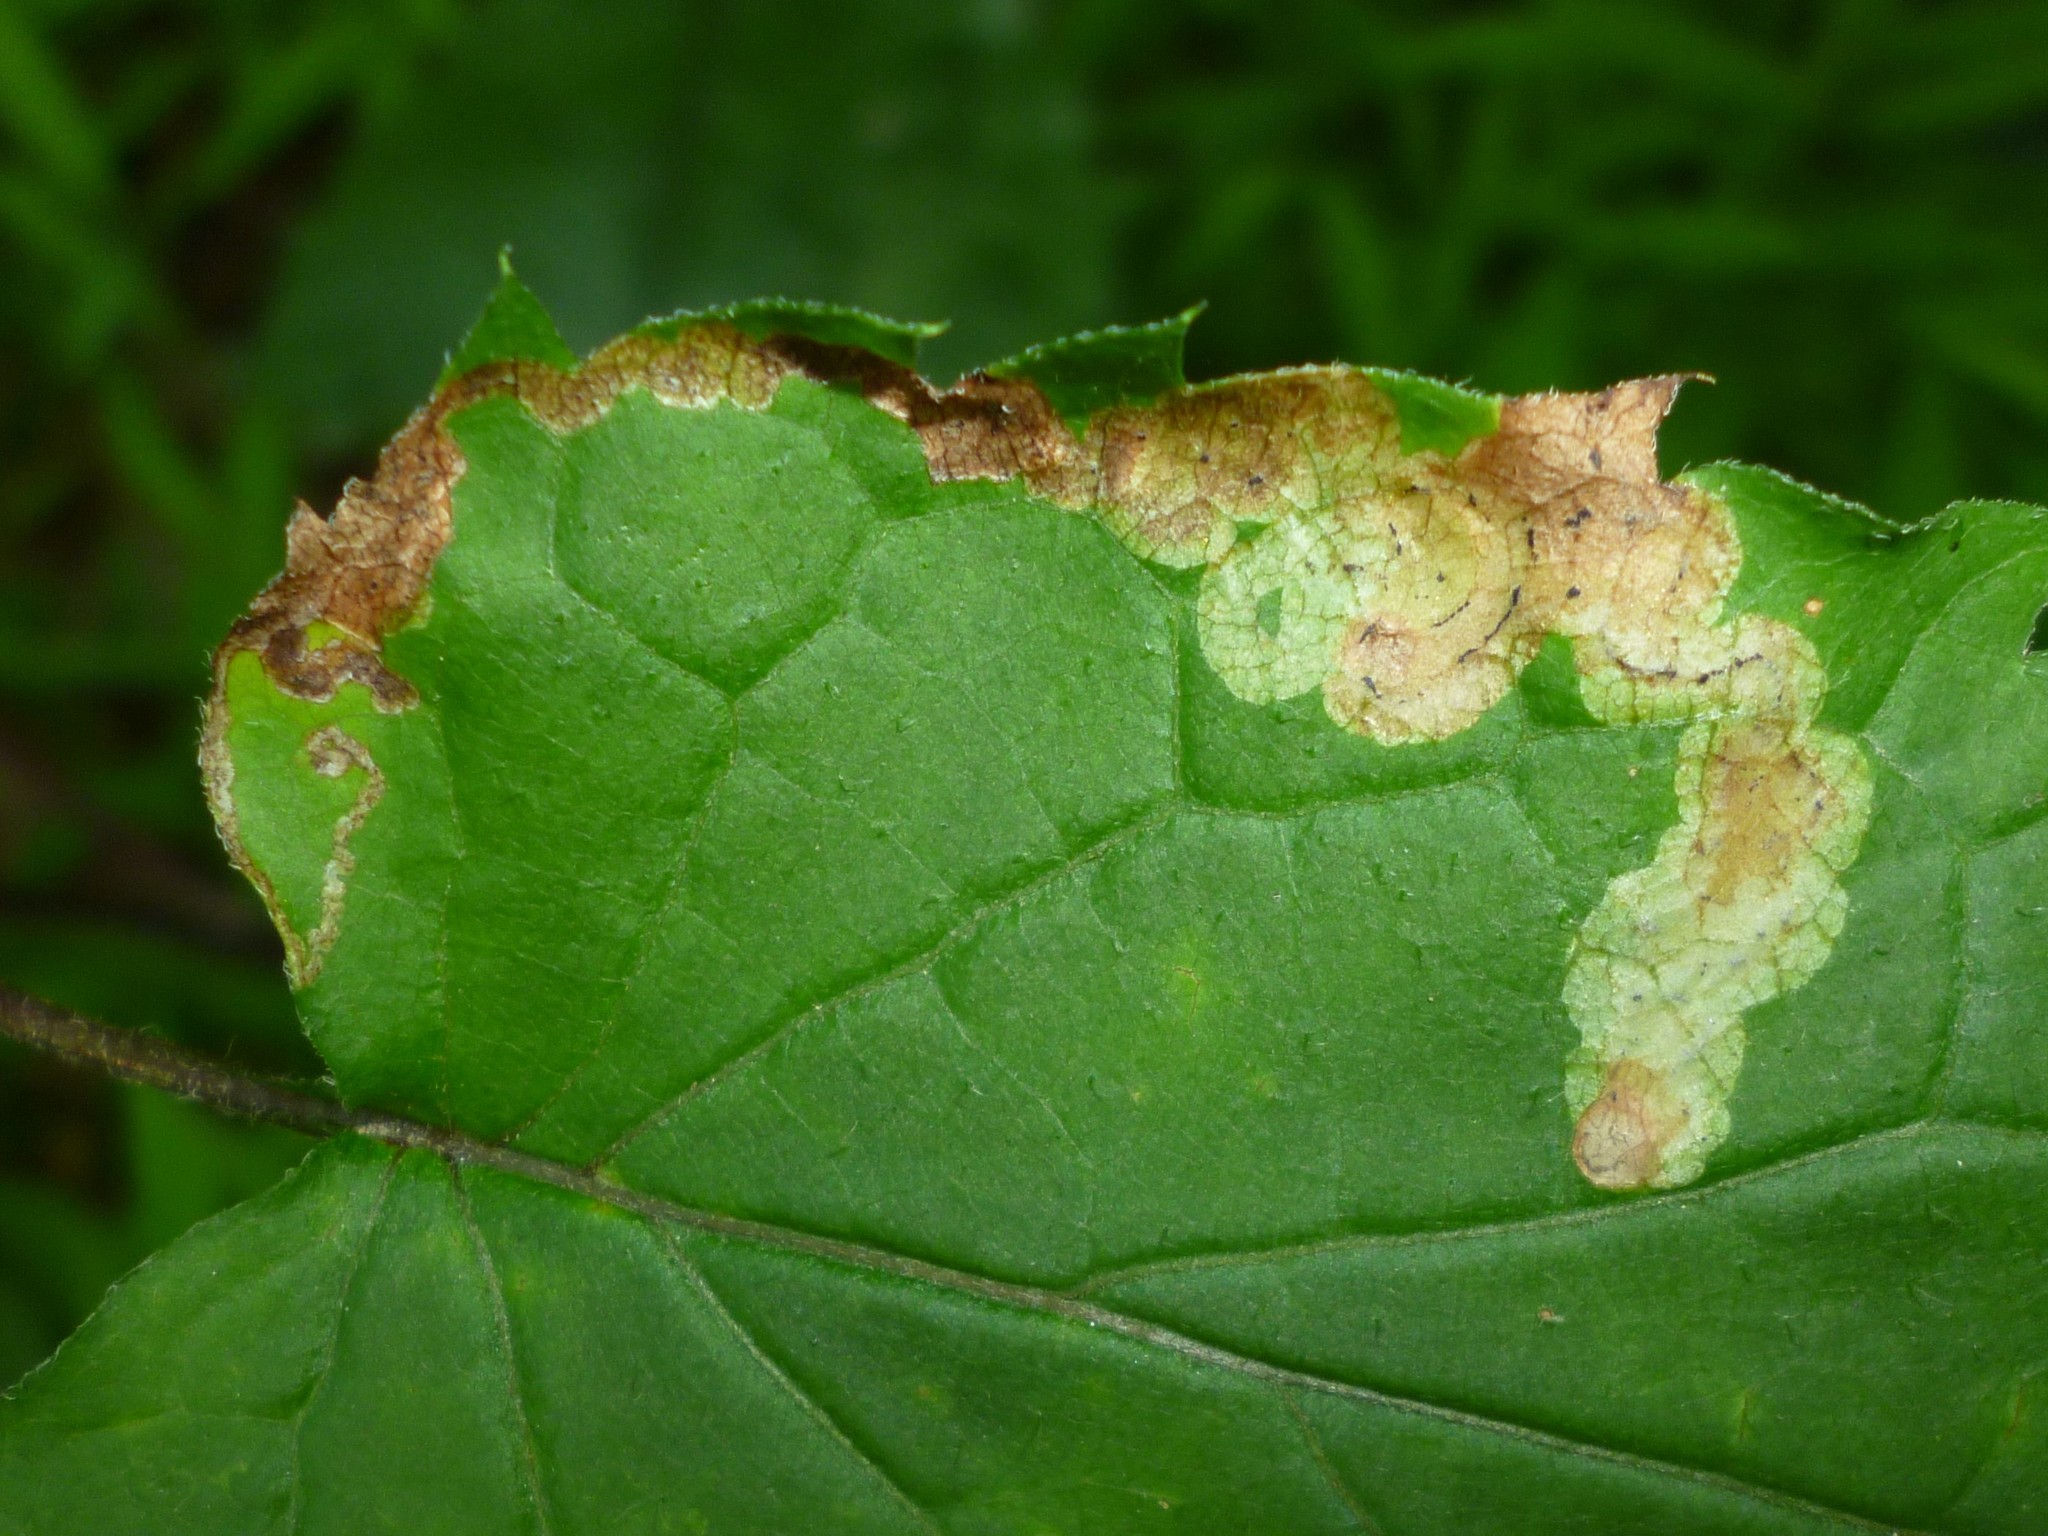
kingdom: Animalia
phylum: Arthropoda
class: Insecta
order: Diptera
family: Agromyzidae
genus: Liriomyza
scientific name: Liriomyza limopsis
